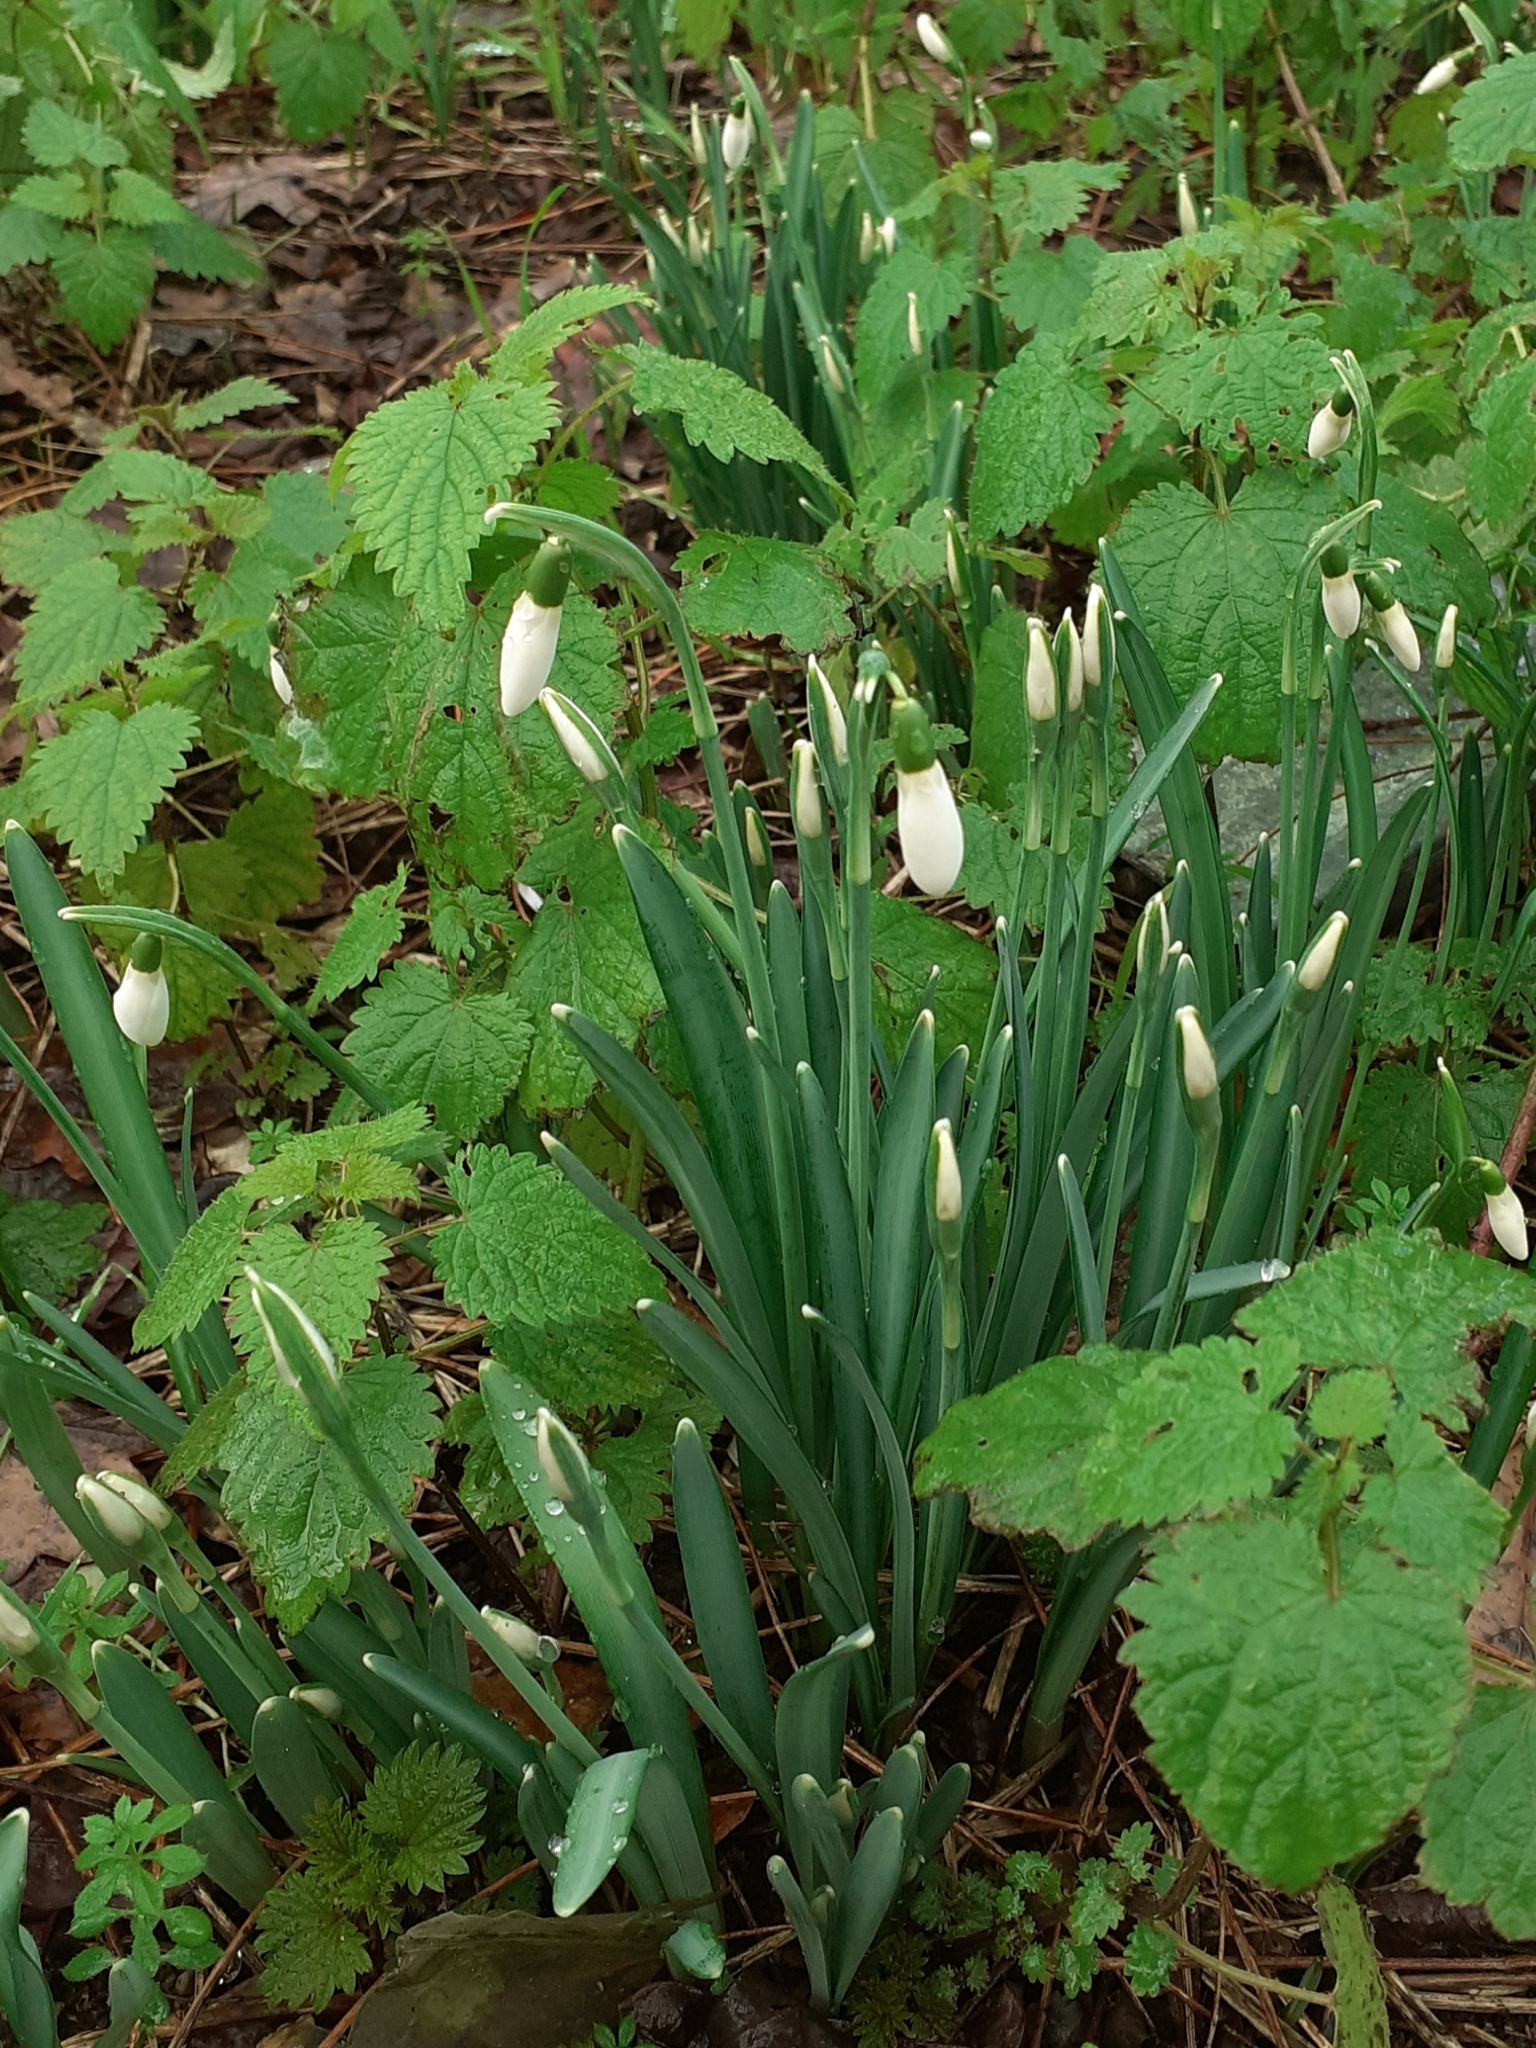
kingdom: Plantae
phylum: Tracheophyta
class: Liliopsida
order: Asparagales
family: Amaryllidaceae
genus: Galanthus
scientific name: Galanthus nivalis
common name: Snowdrop
